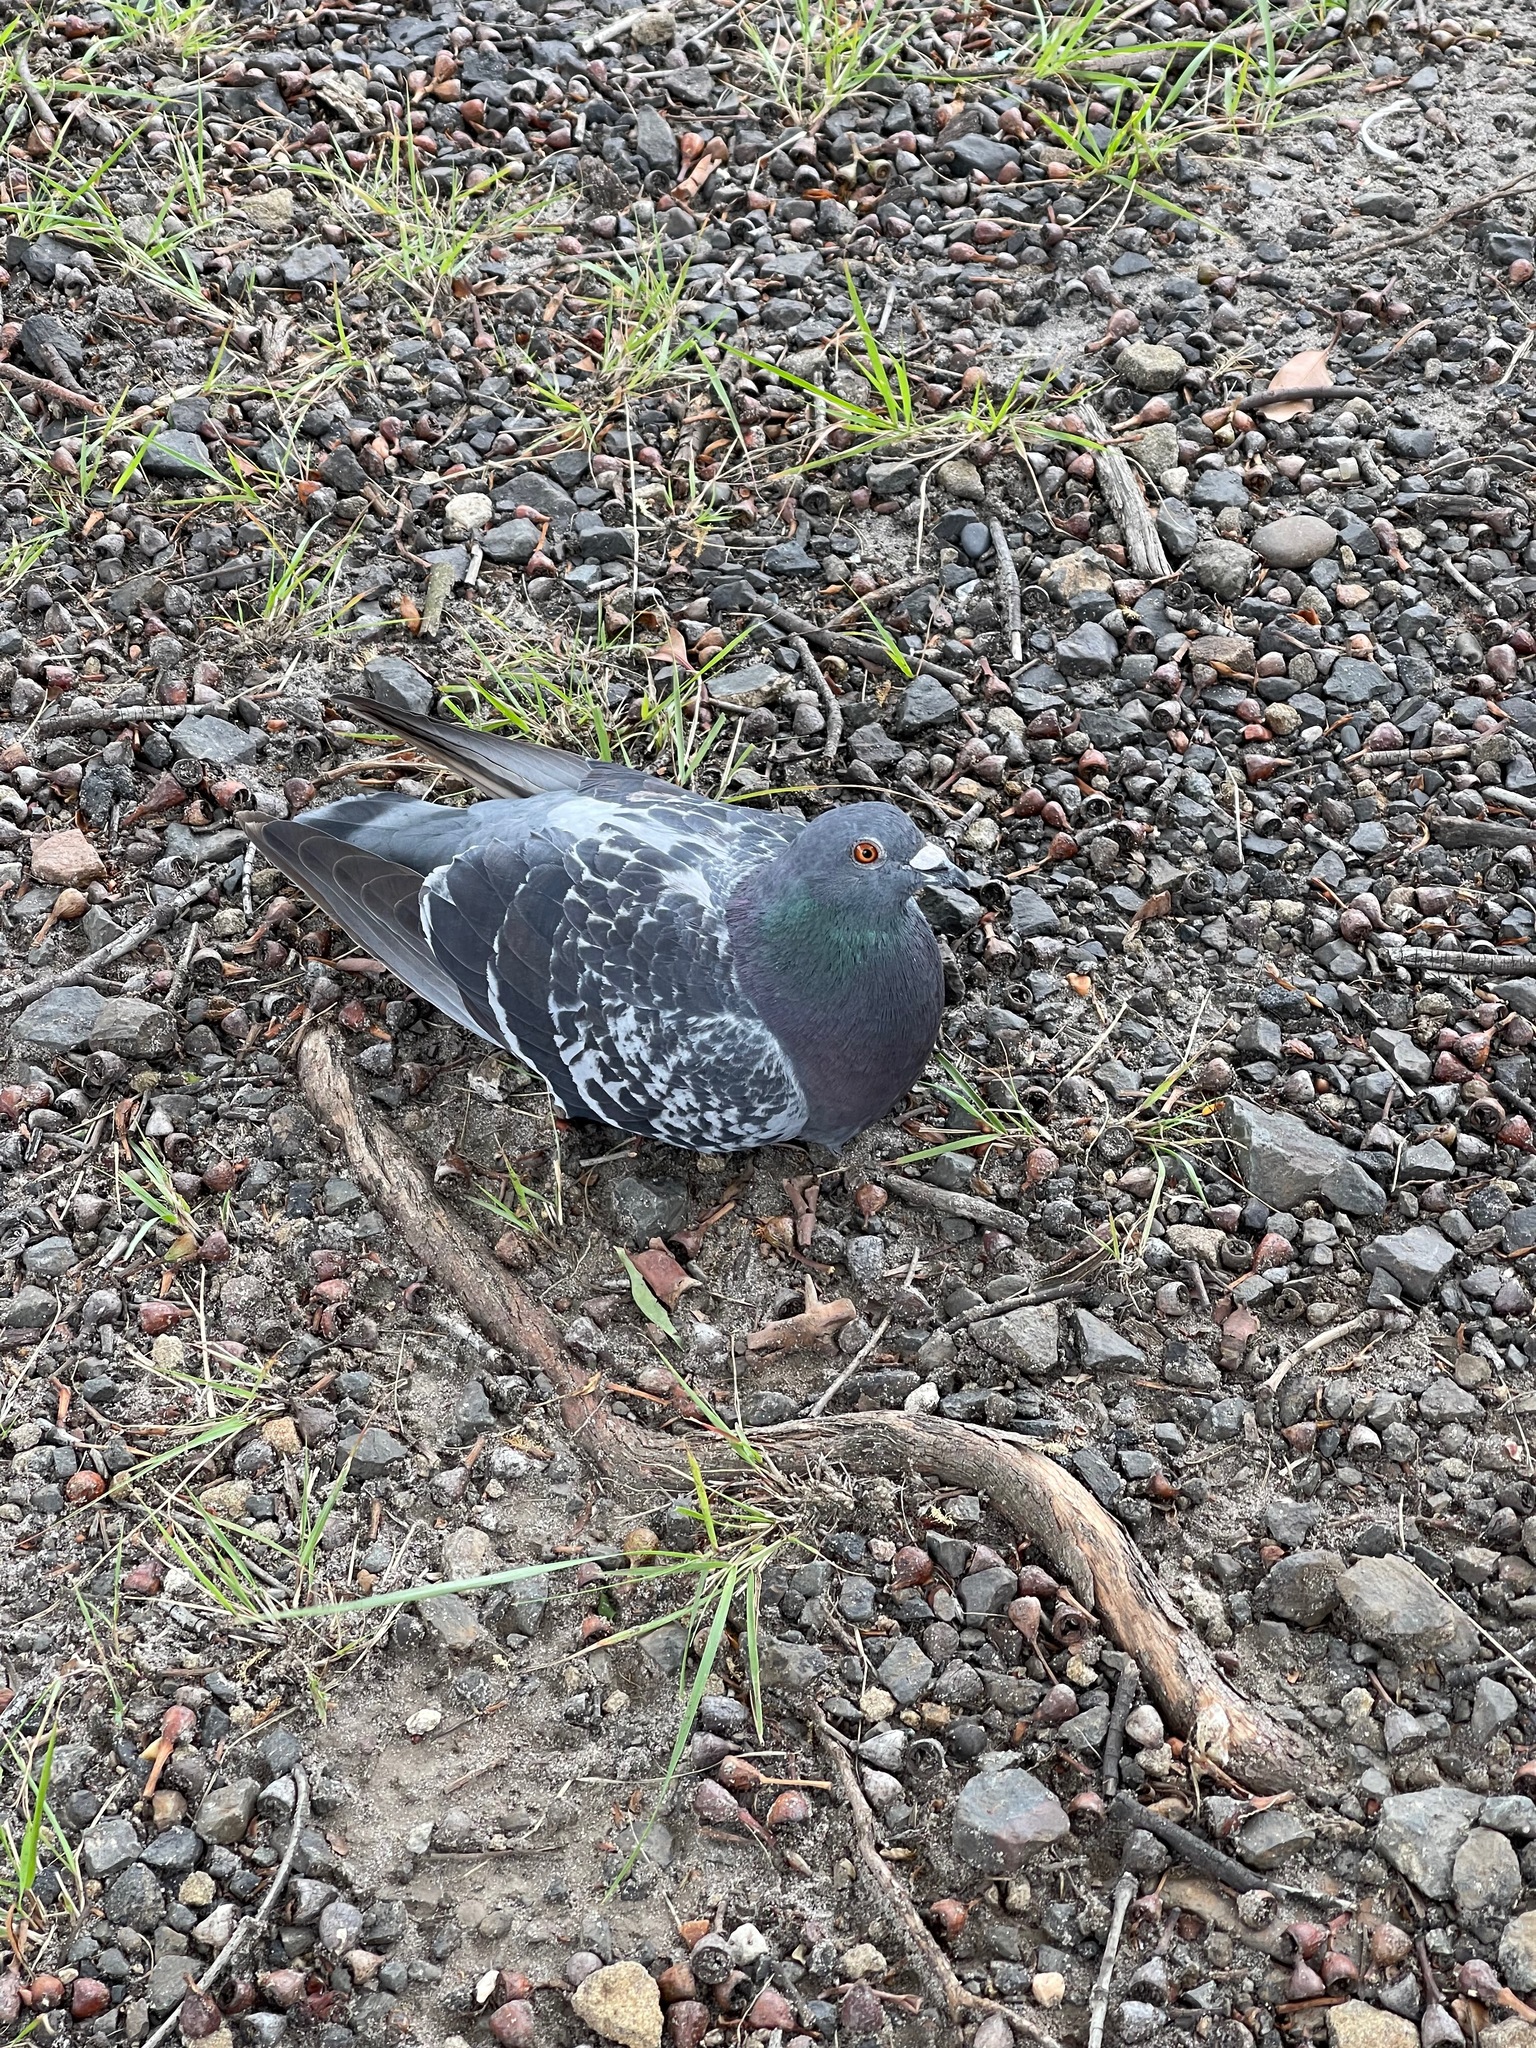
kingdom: Animalia
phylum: Chordata
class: Aves
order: Columbiformes
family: Columbidae
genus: Columba
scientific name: Columba livia
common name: Rock pigeon
